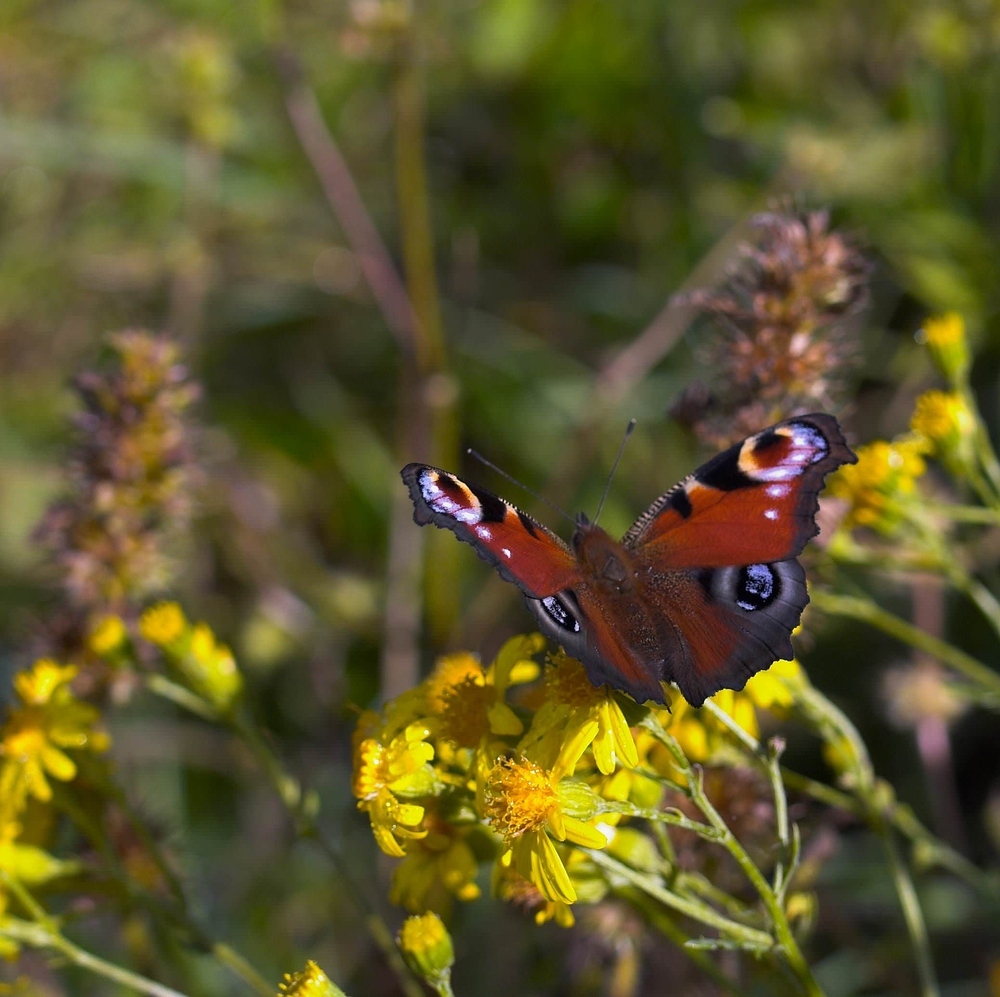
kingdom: Animalia
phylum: Arthropoda
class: Insecta
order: Lepidoptera
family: Nymphalidae
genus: Aglais
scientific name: Aglais io
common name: Peacock
